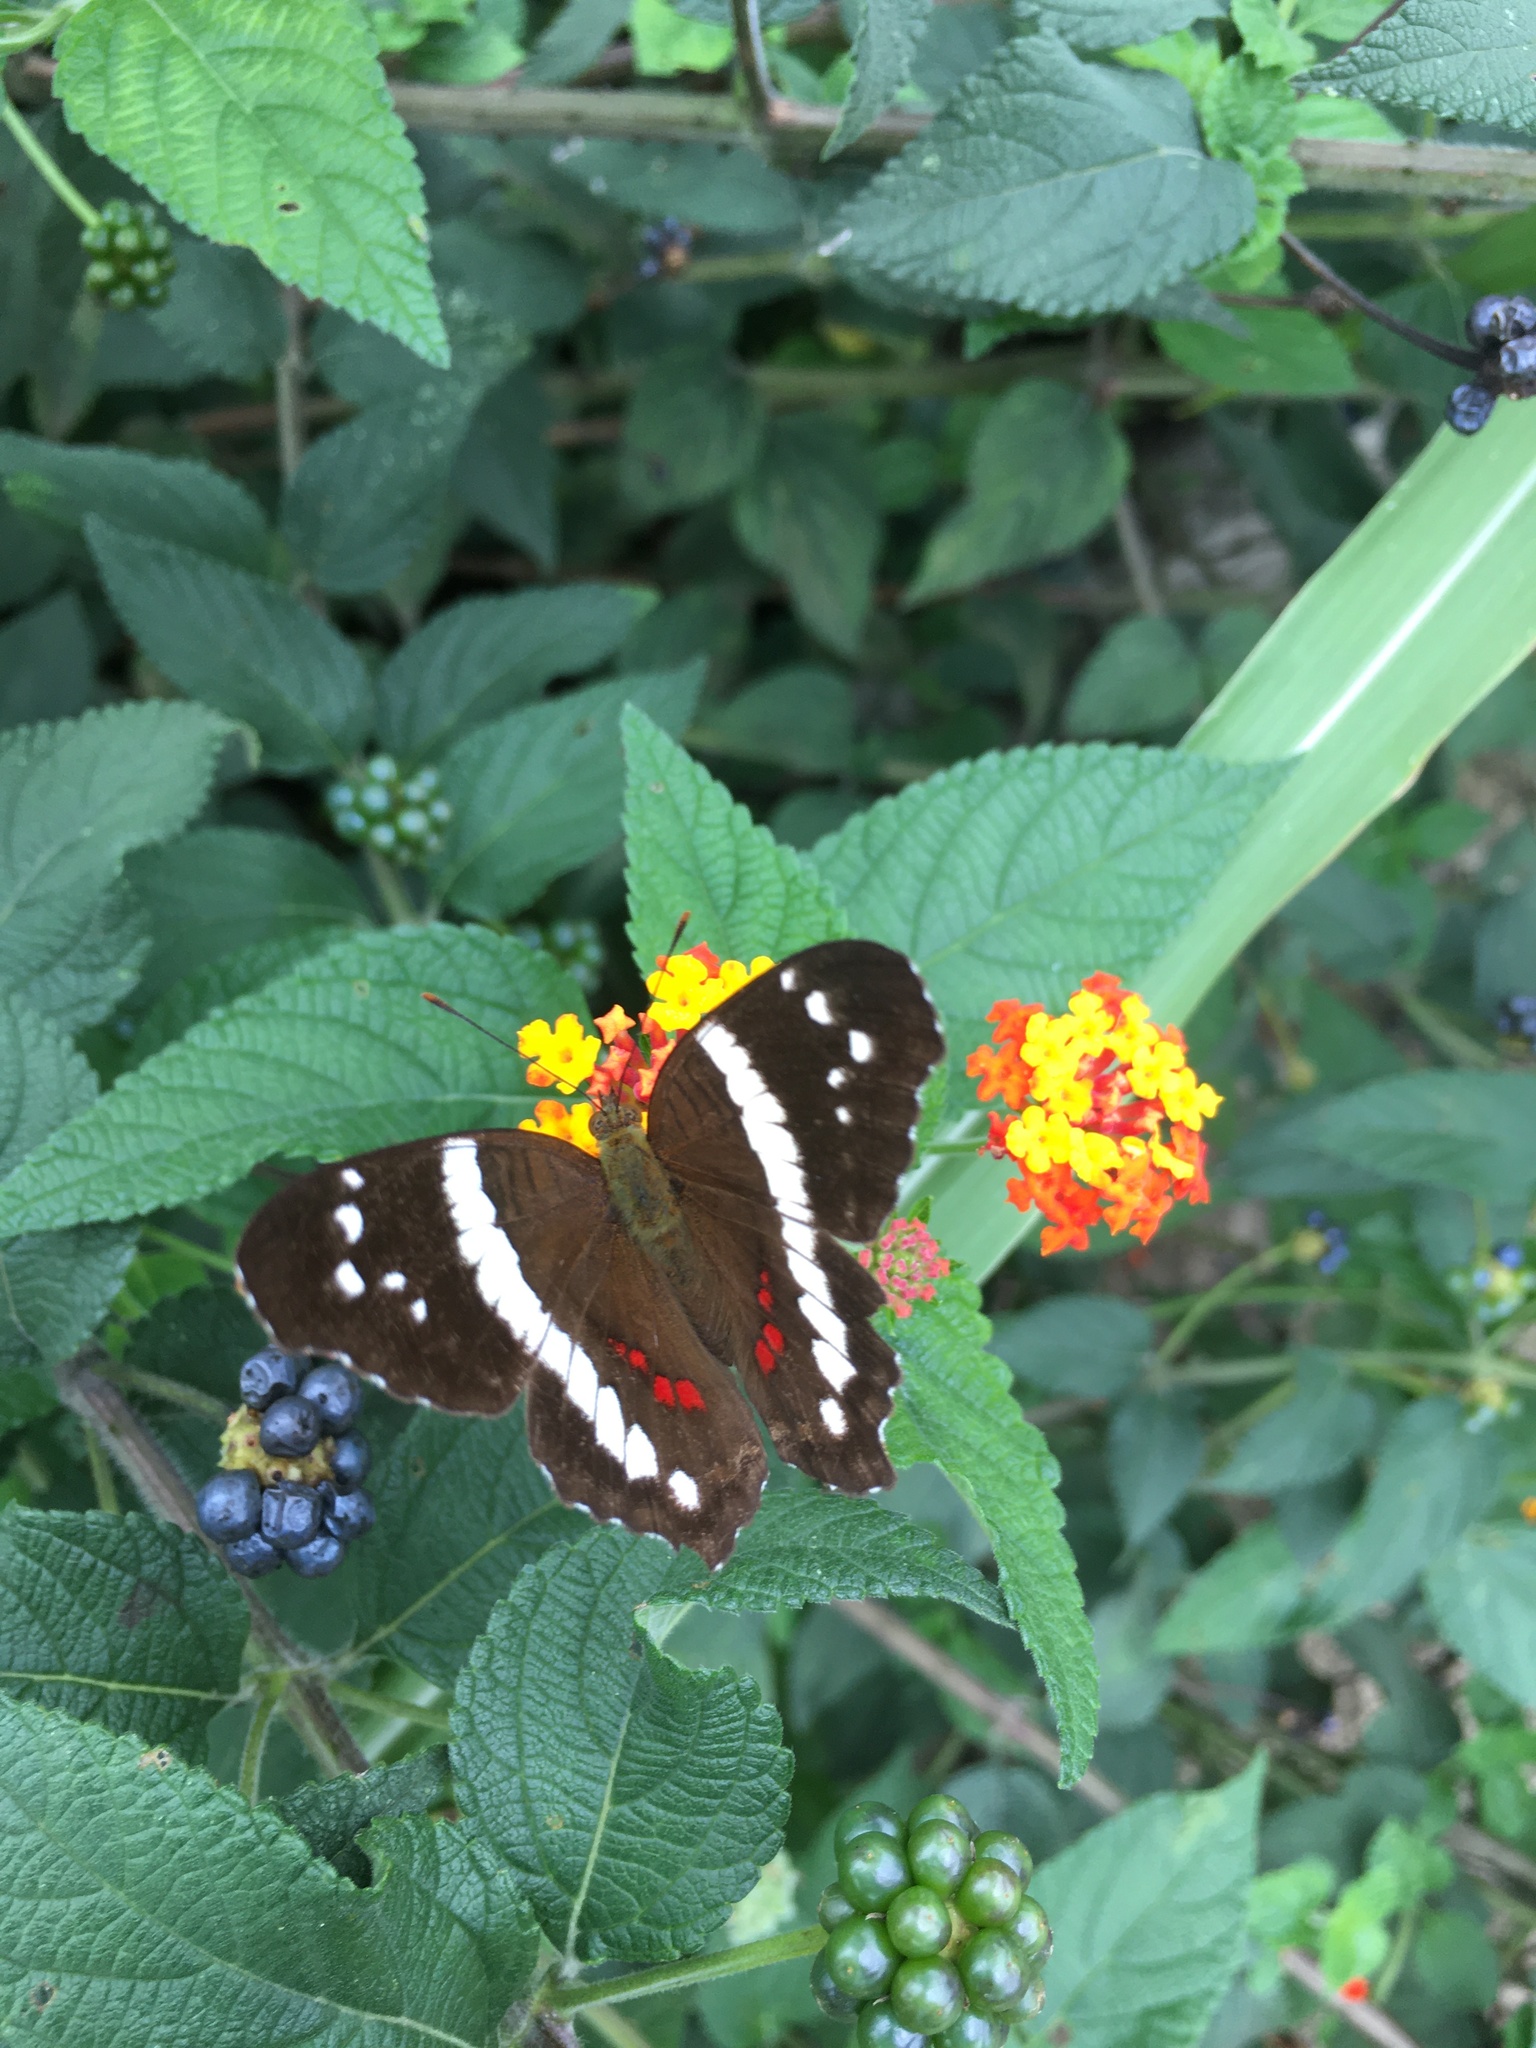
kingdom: Animalia
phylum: Arthropoda
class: Insecta
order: Lepidoptera
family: Nymphalidae
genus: Anartia
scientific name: Anartia fatima
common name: Banded peacock
